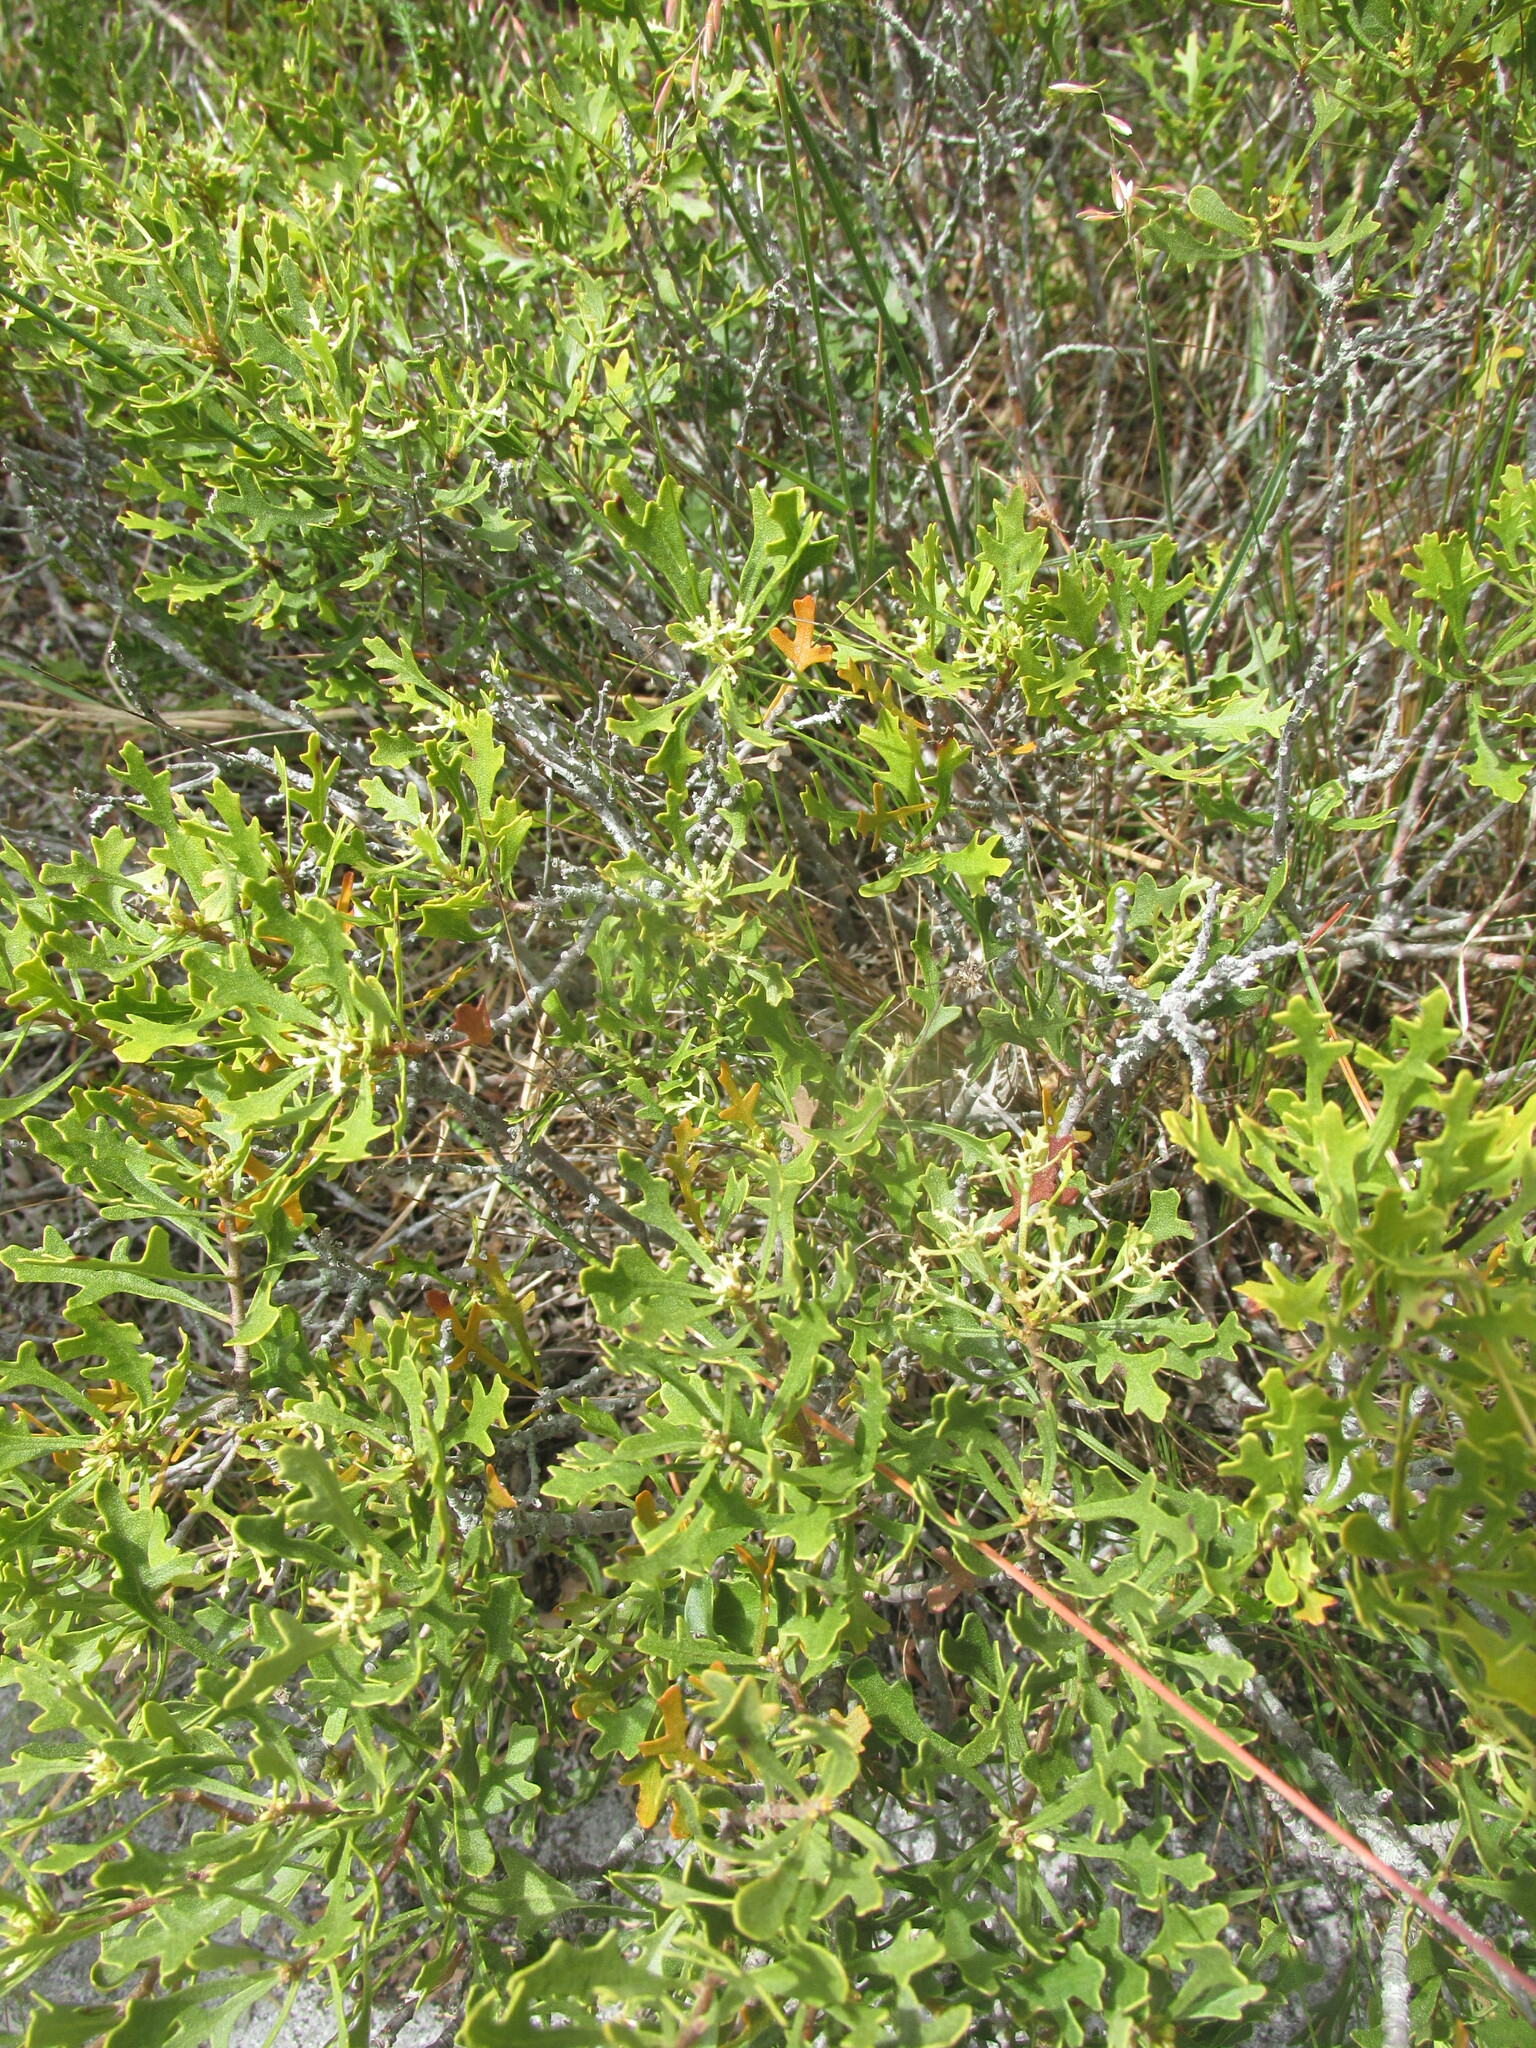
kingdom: Plantae
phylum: Tracheophyta
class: Magnoliopsida
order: Fagales
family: Myricaceae
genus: Morella
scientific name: Morella quercifolia
